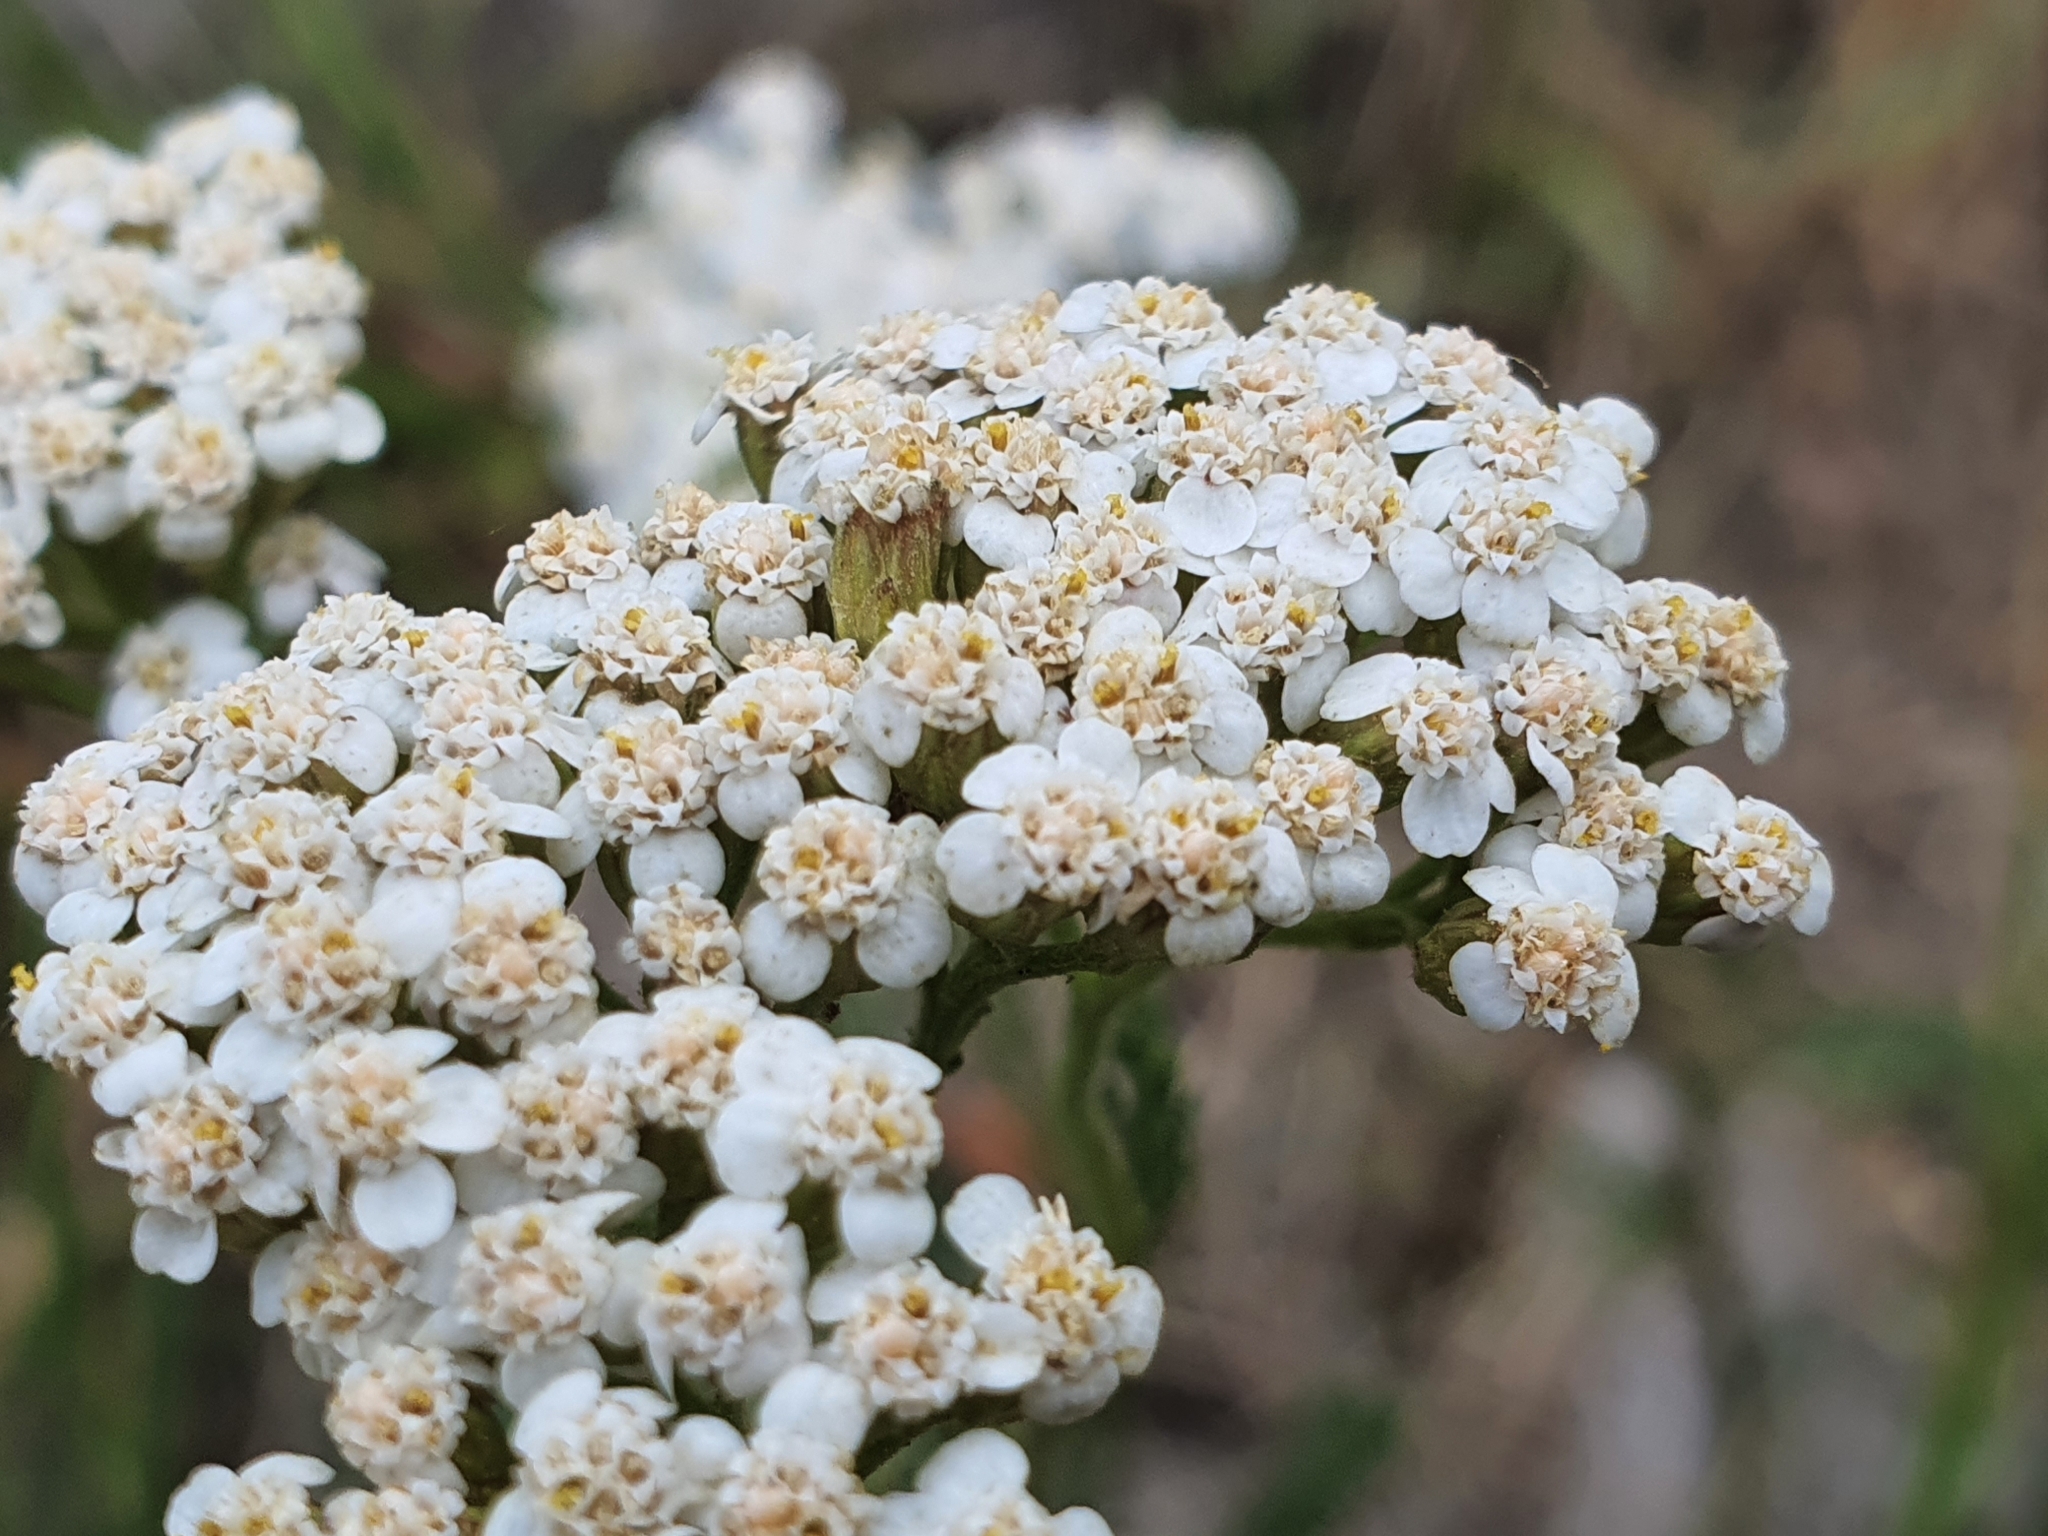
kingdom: Plantae
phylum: Tracheophyta
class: Magnoliopsida
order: Asterales
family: Asteraceae
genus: Achillea
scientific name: Achillea millefolium
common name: Yarrow
